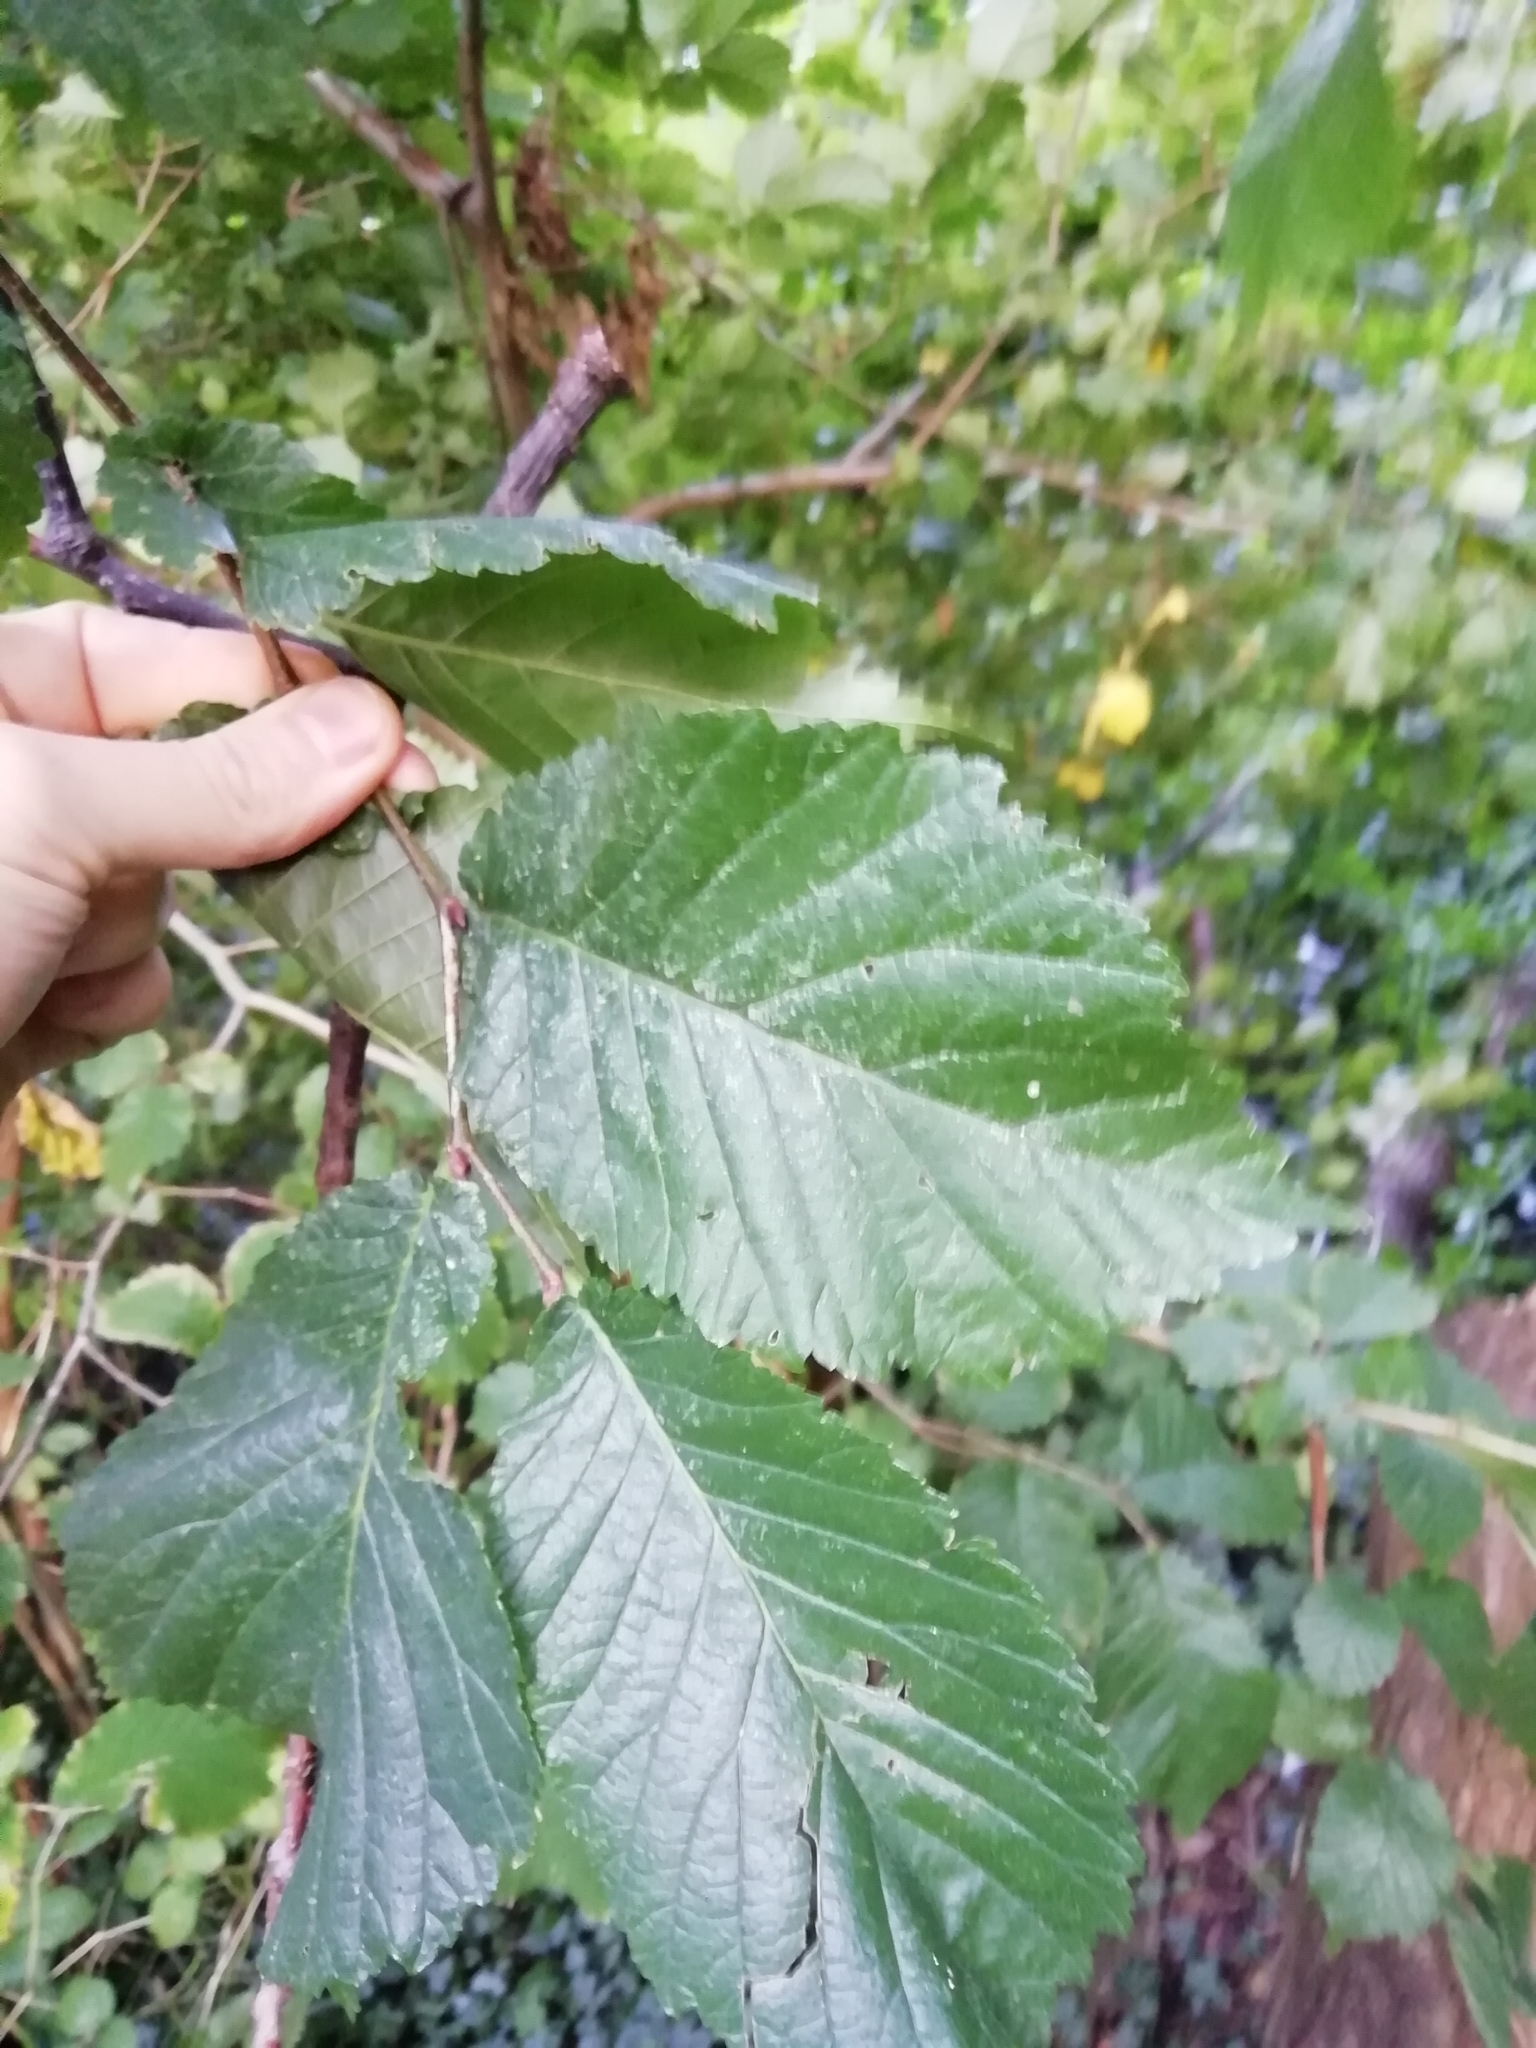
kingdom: Plantae
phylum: Tracheophyta
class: Magnoliopsida
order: Rosales
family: Ulmaceae
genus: Ulmus
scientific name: Ulmus glabra
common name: Wych elm
